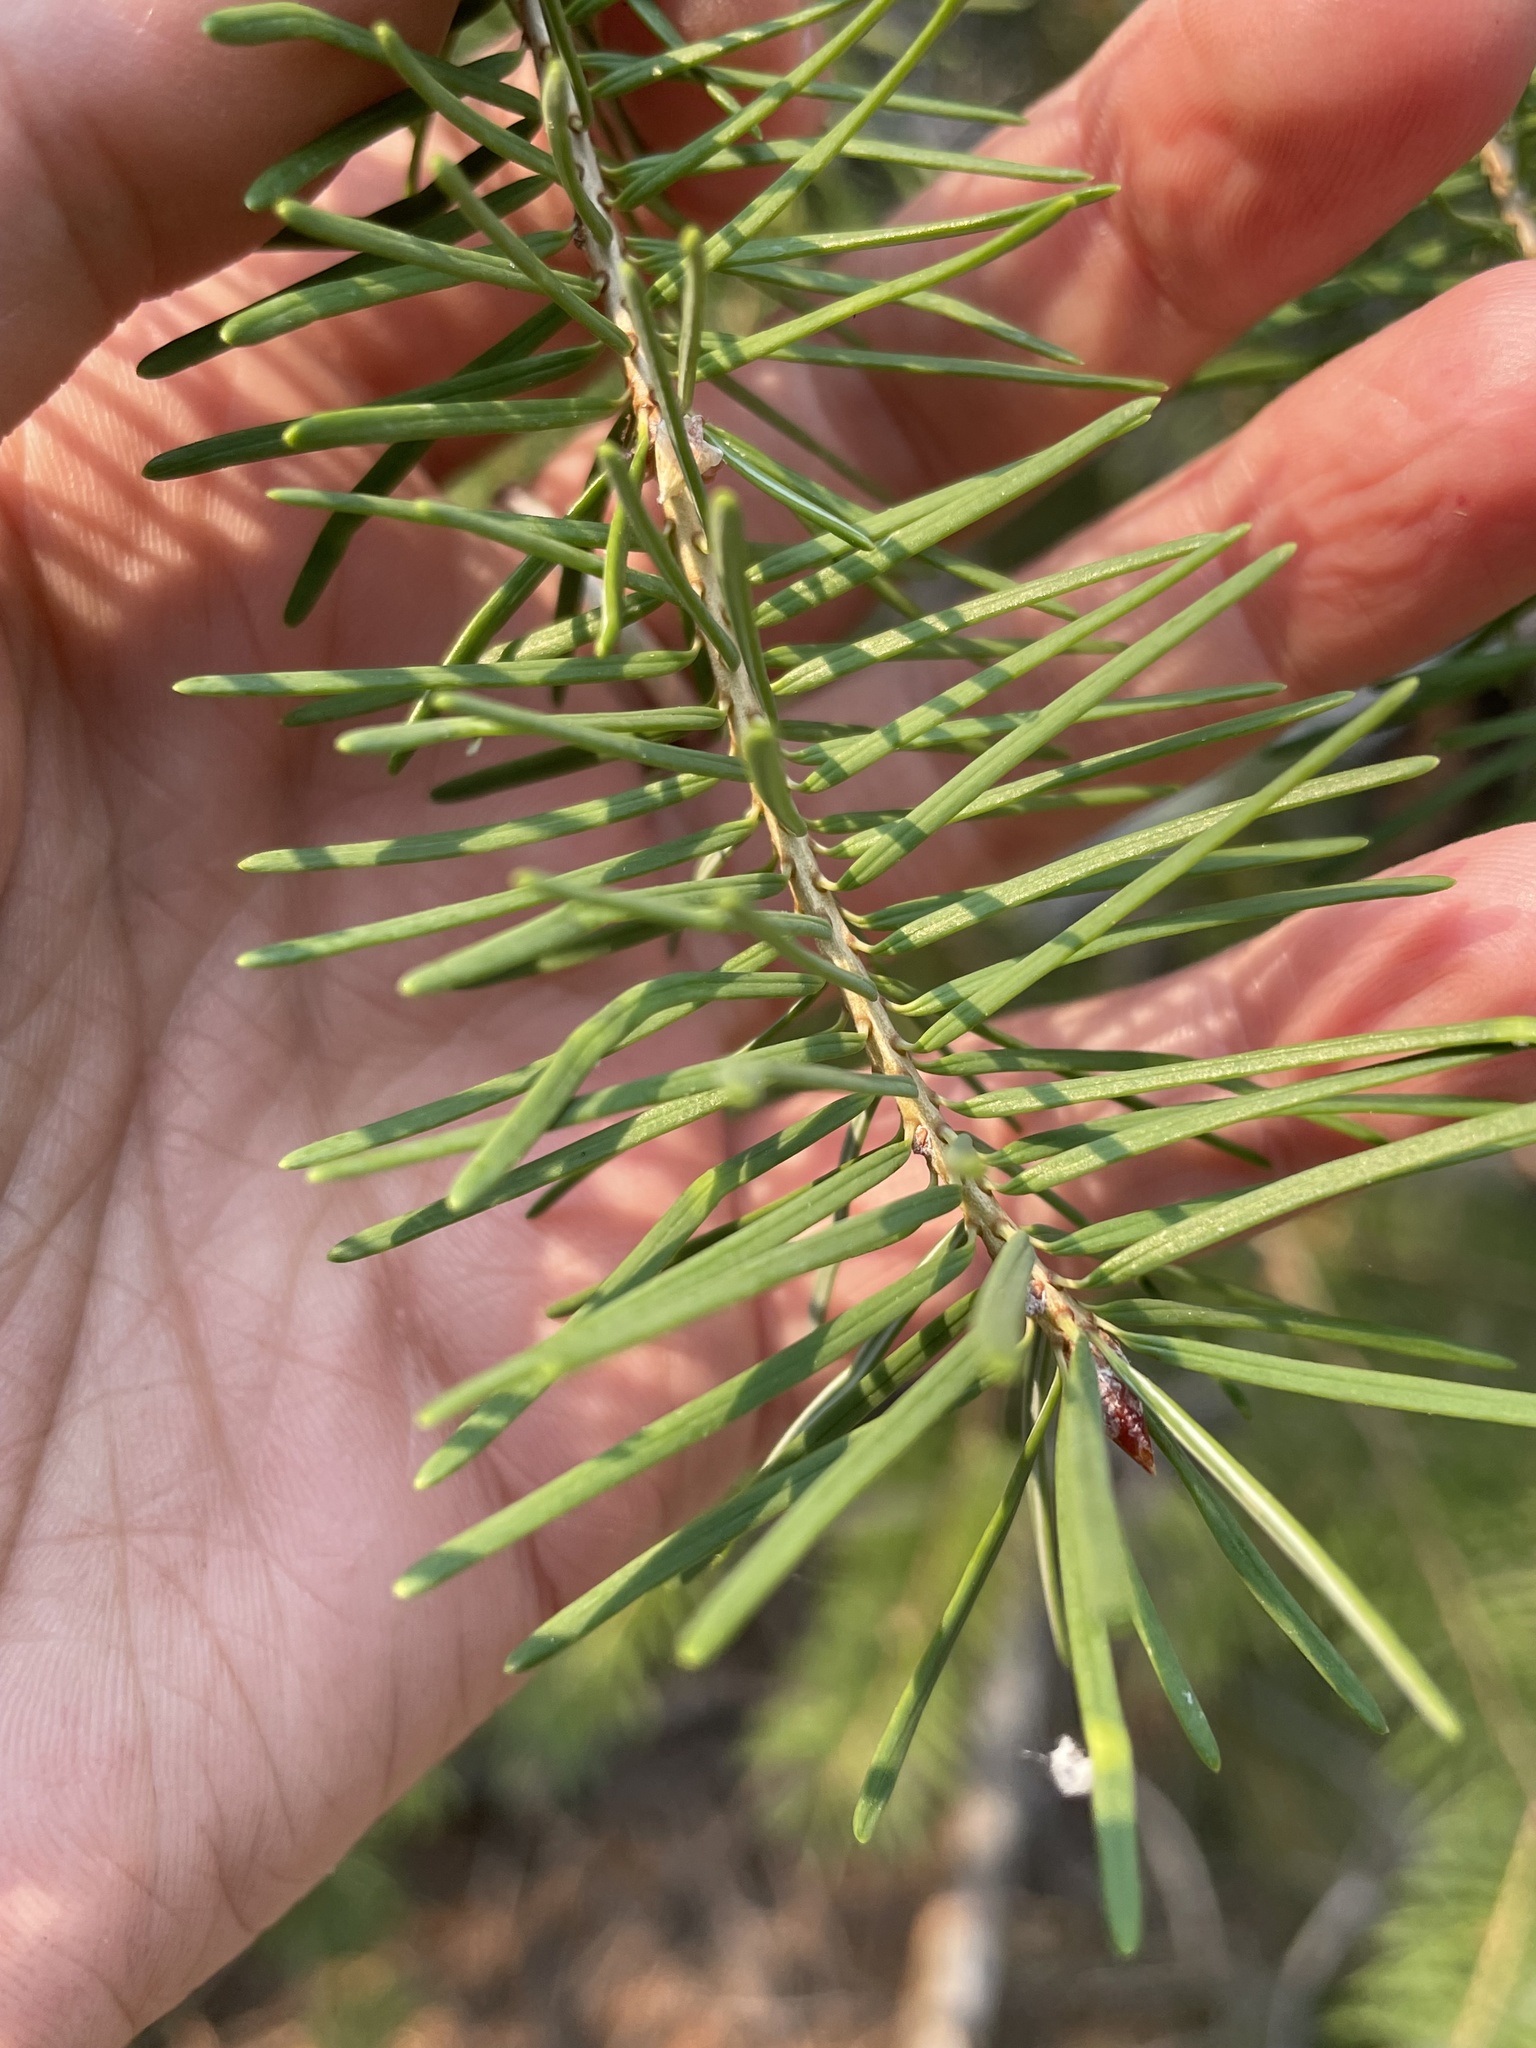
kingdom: Plantae
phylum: Tracheophyta
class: Pinopsida
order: Pinales
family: Pinaceae
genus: Pseudotsuga
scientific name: Pseudotsuga menziesii
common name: Douglas fir
